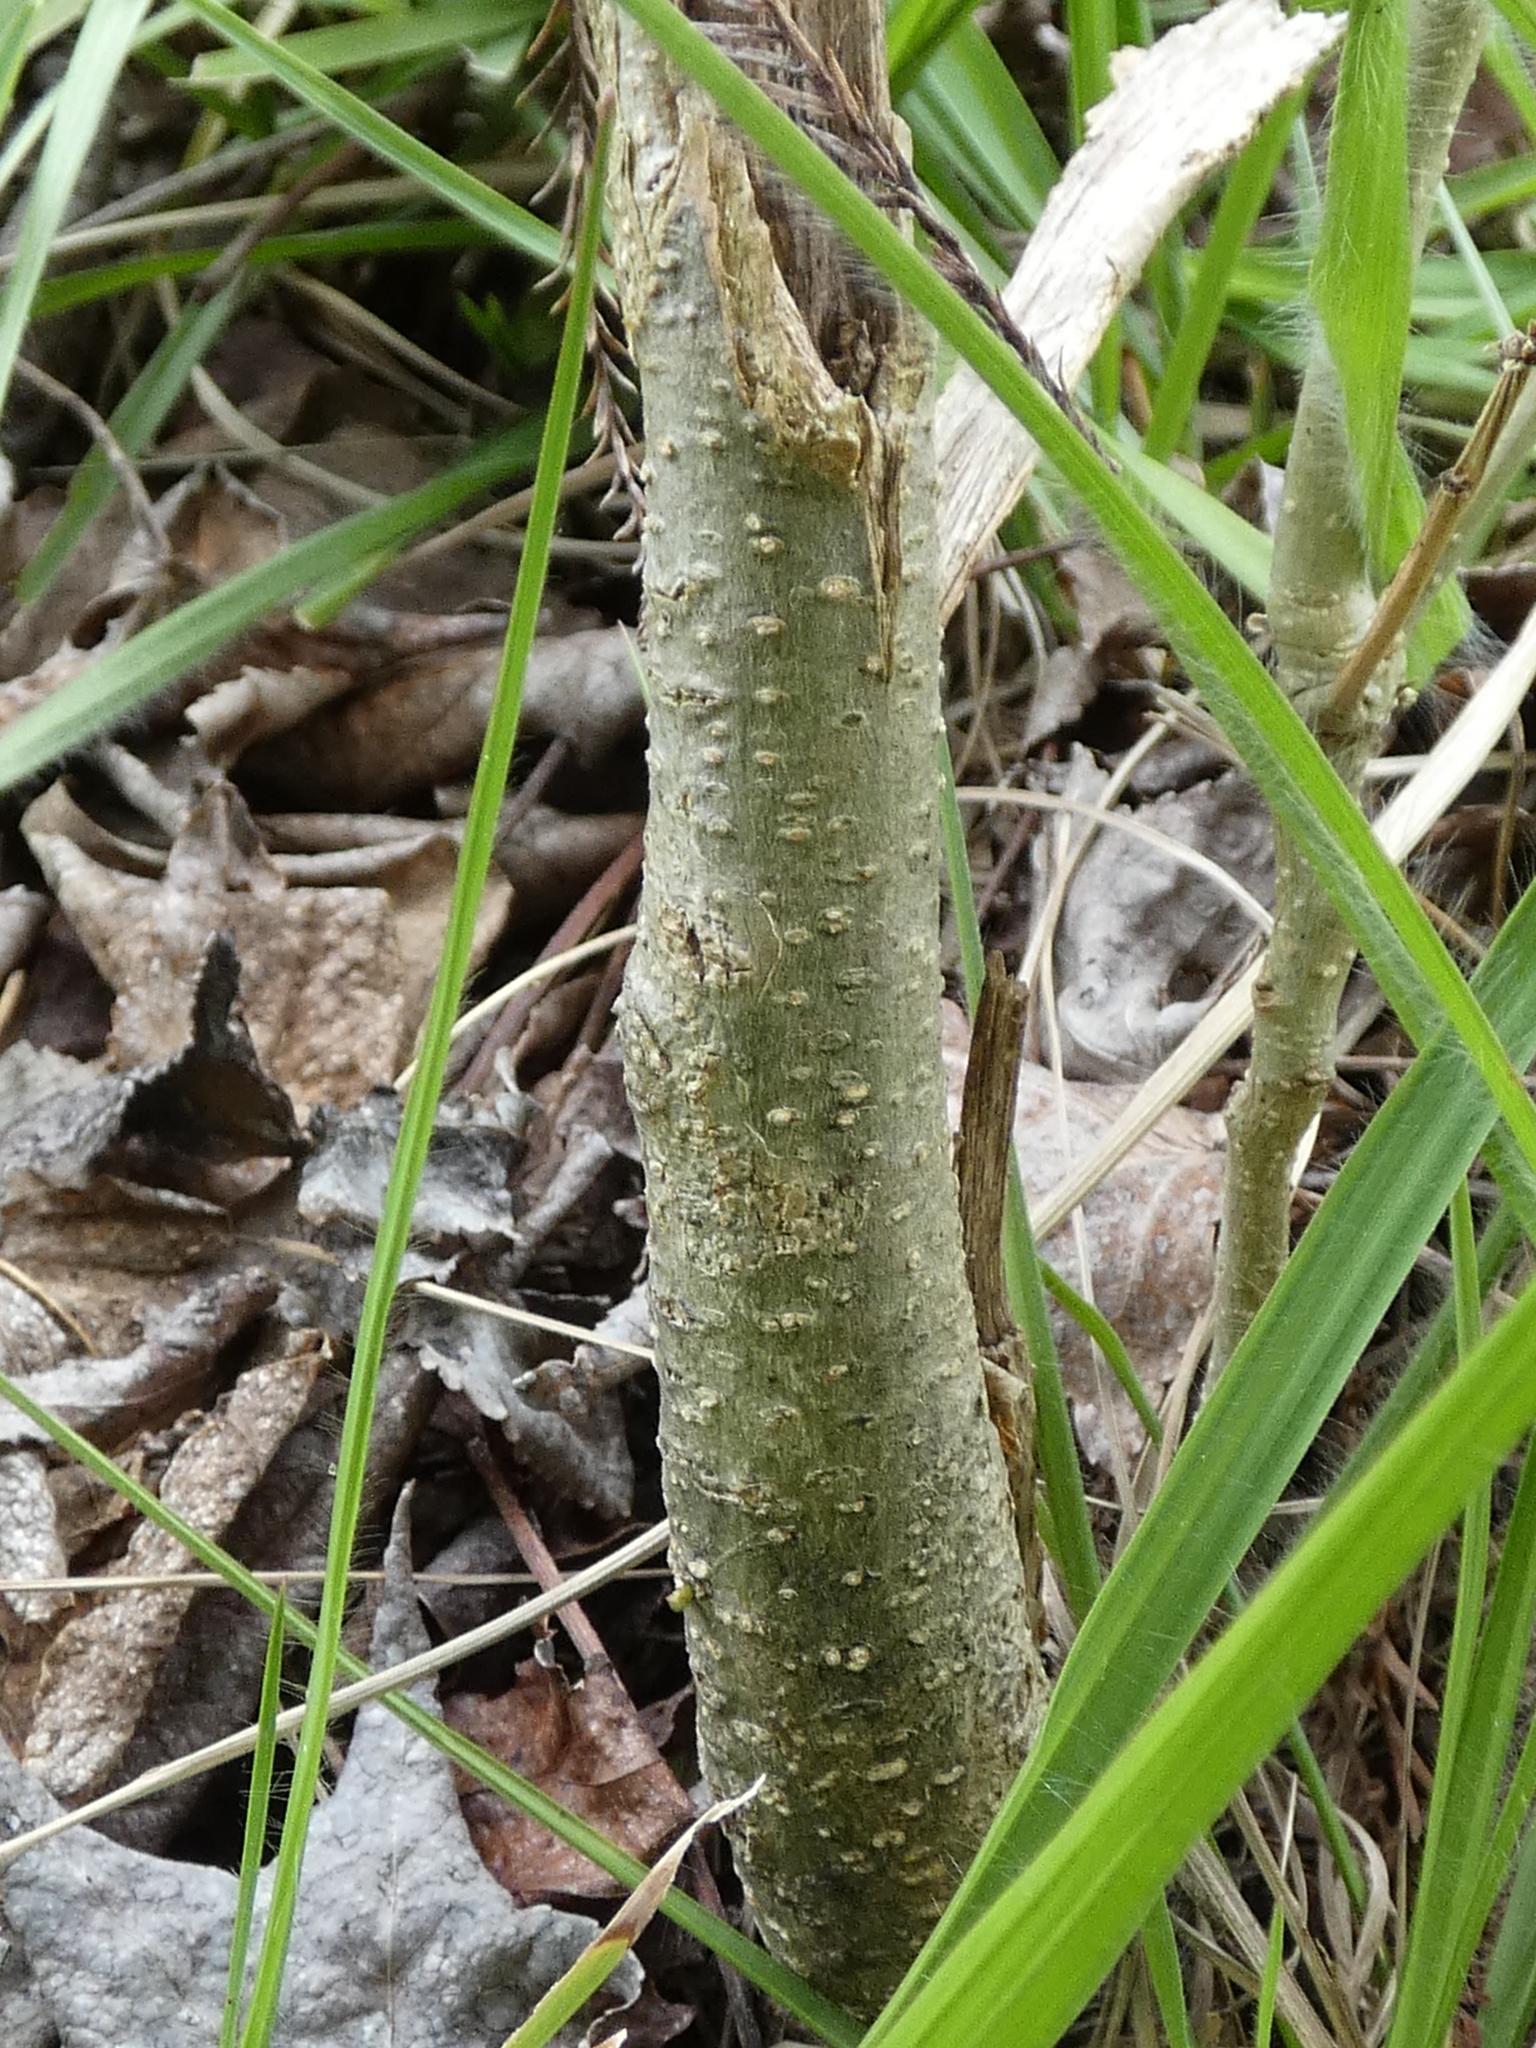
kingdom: Plantae
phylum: Tracheophyta
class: Magnoliopsida
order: Fabales
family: Fabaceae
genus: Albizia
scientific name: Albizia julibrissin
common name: Silktree
